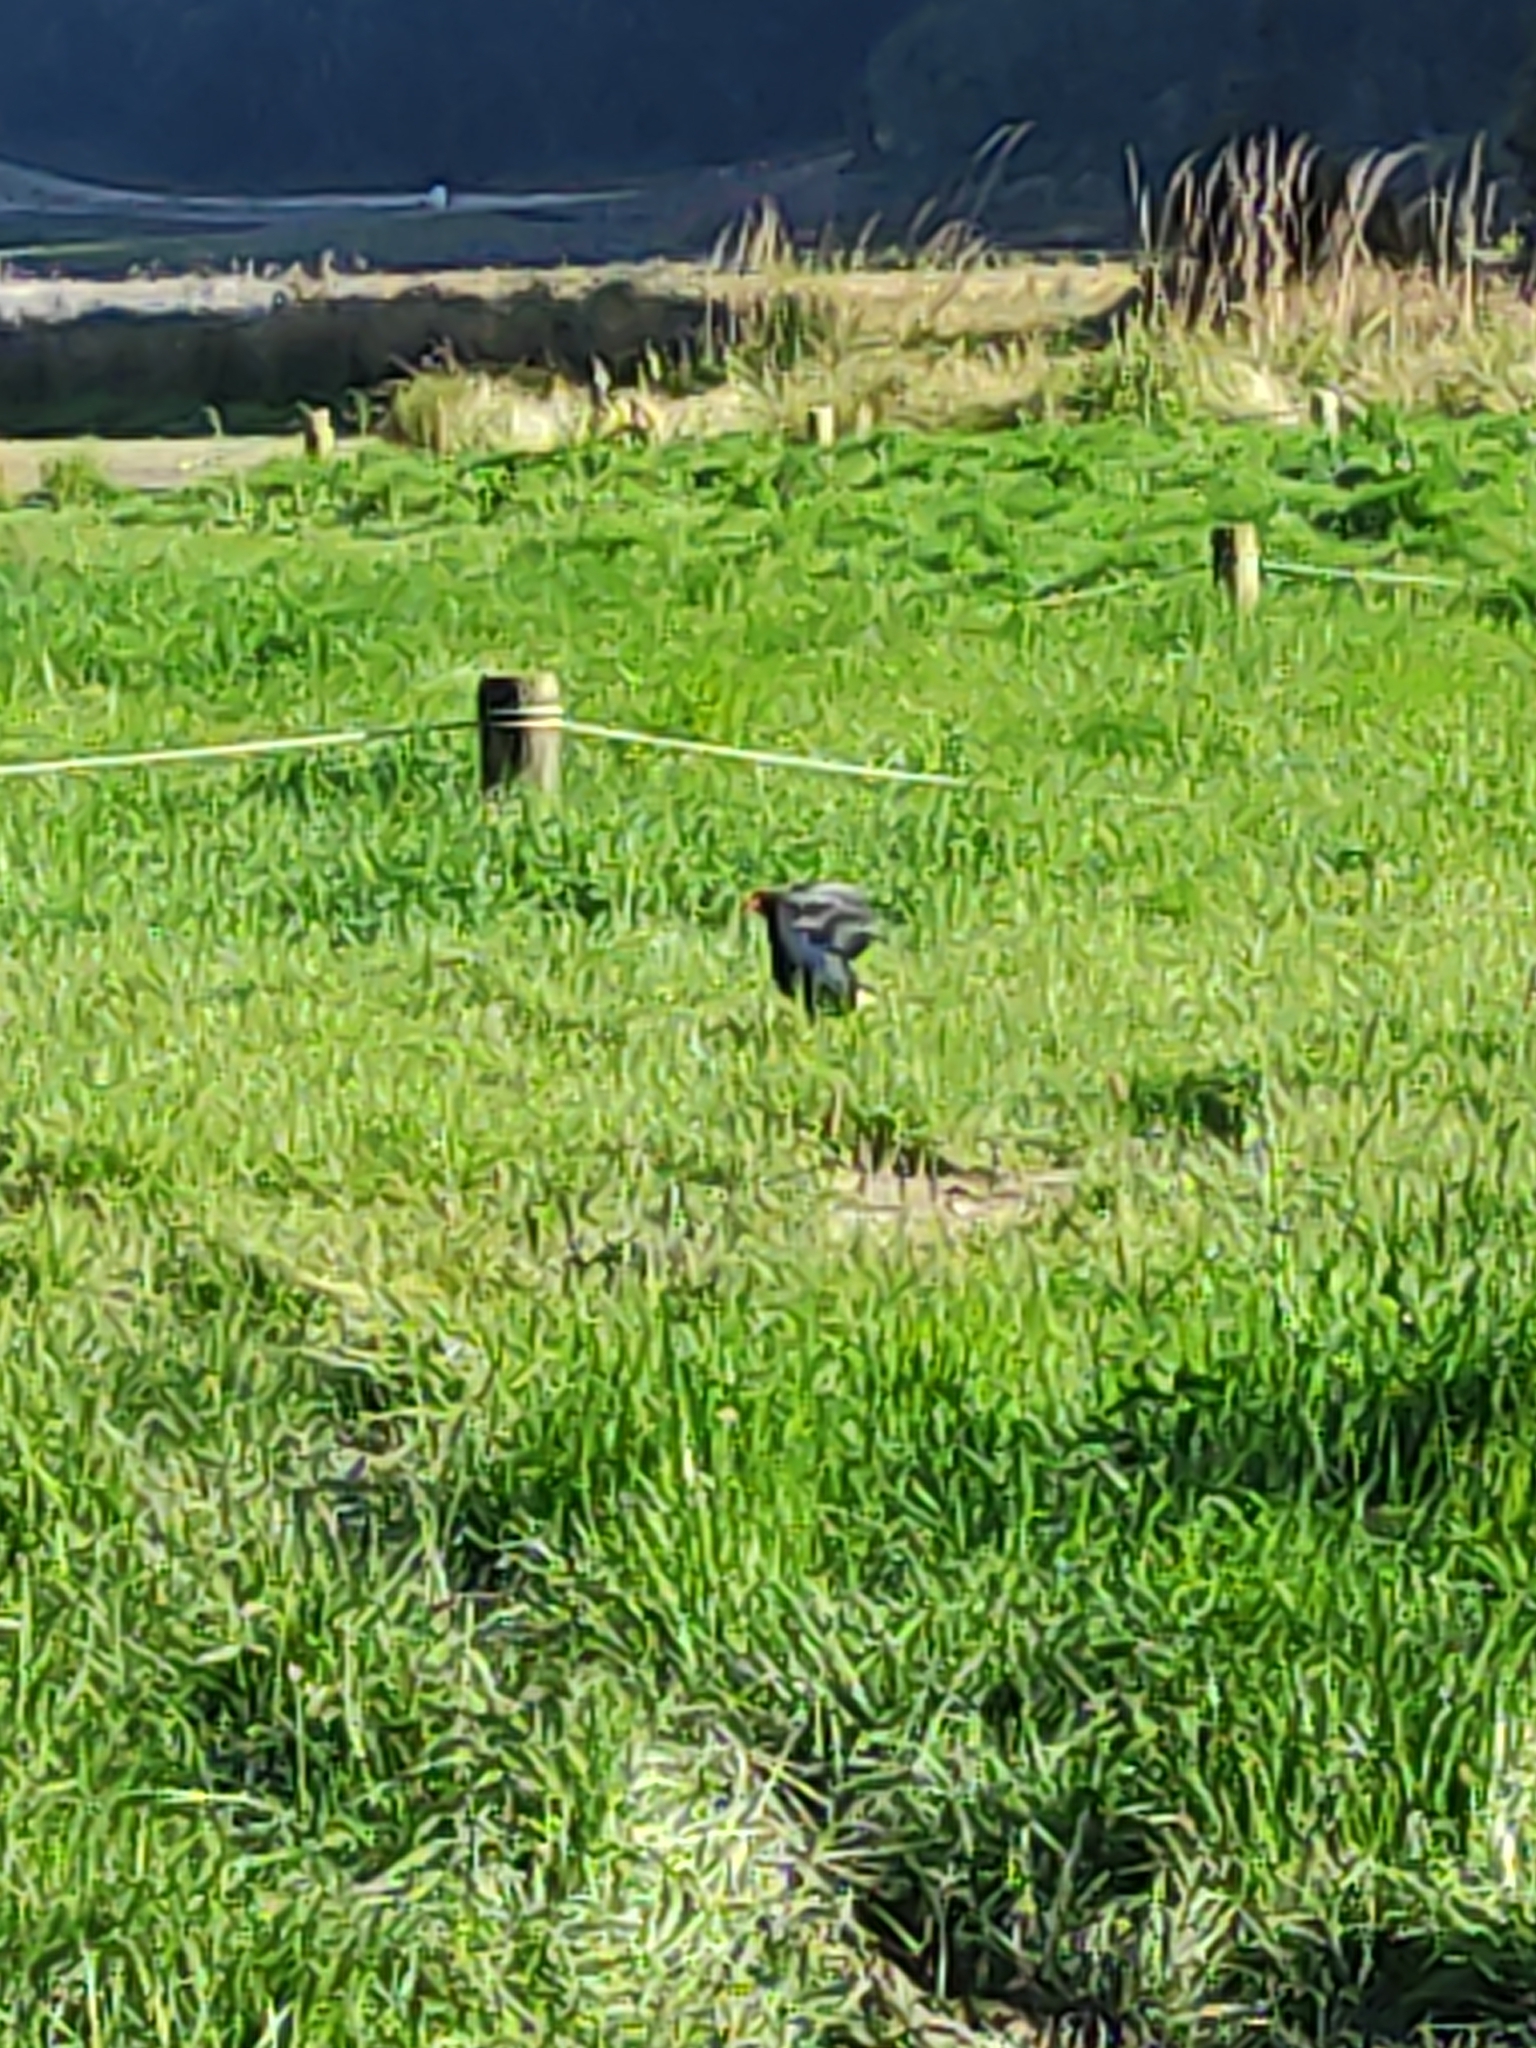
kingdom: Animalia
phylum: Chordata
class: Aves
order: Gruiformes
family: Rallidae
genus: Porphyrio
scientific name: Porphyrio melanotus
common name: Australasian swamphen
